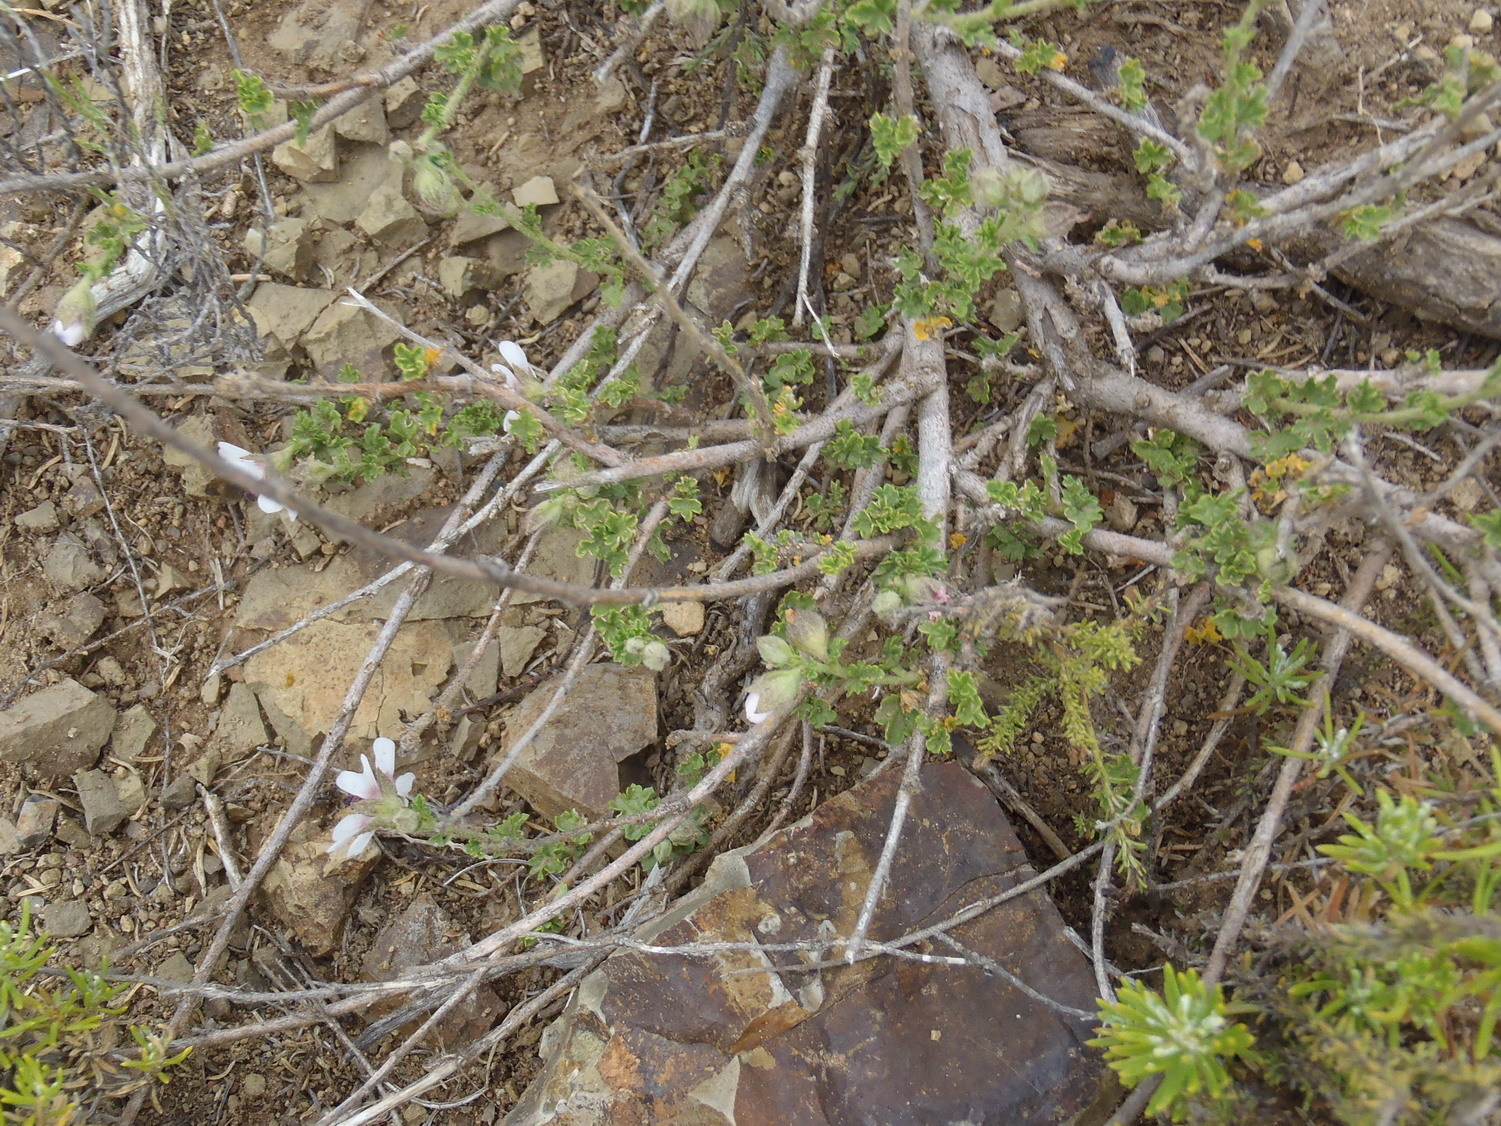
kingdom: Plantae
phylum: Tracheophyta
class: Magnoliopsida
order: Malvales
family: Malvaceae
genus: Anisodontea
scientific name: Anisodontea malvastroides
